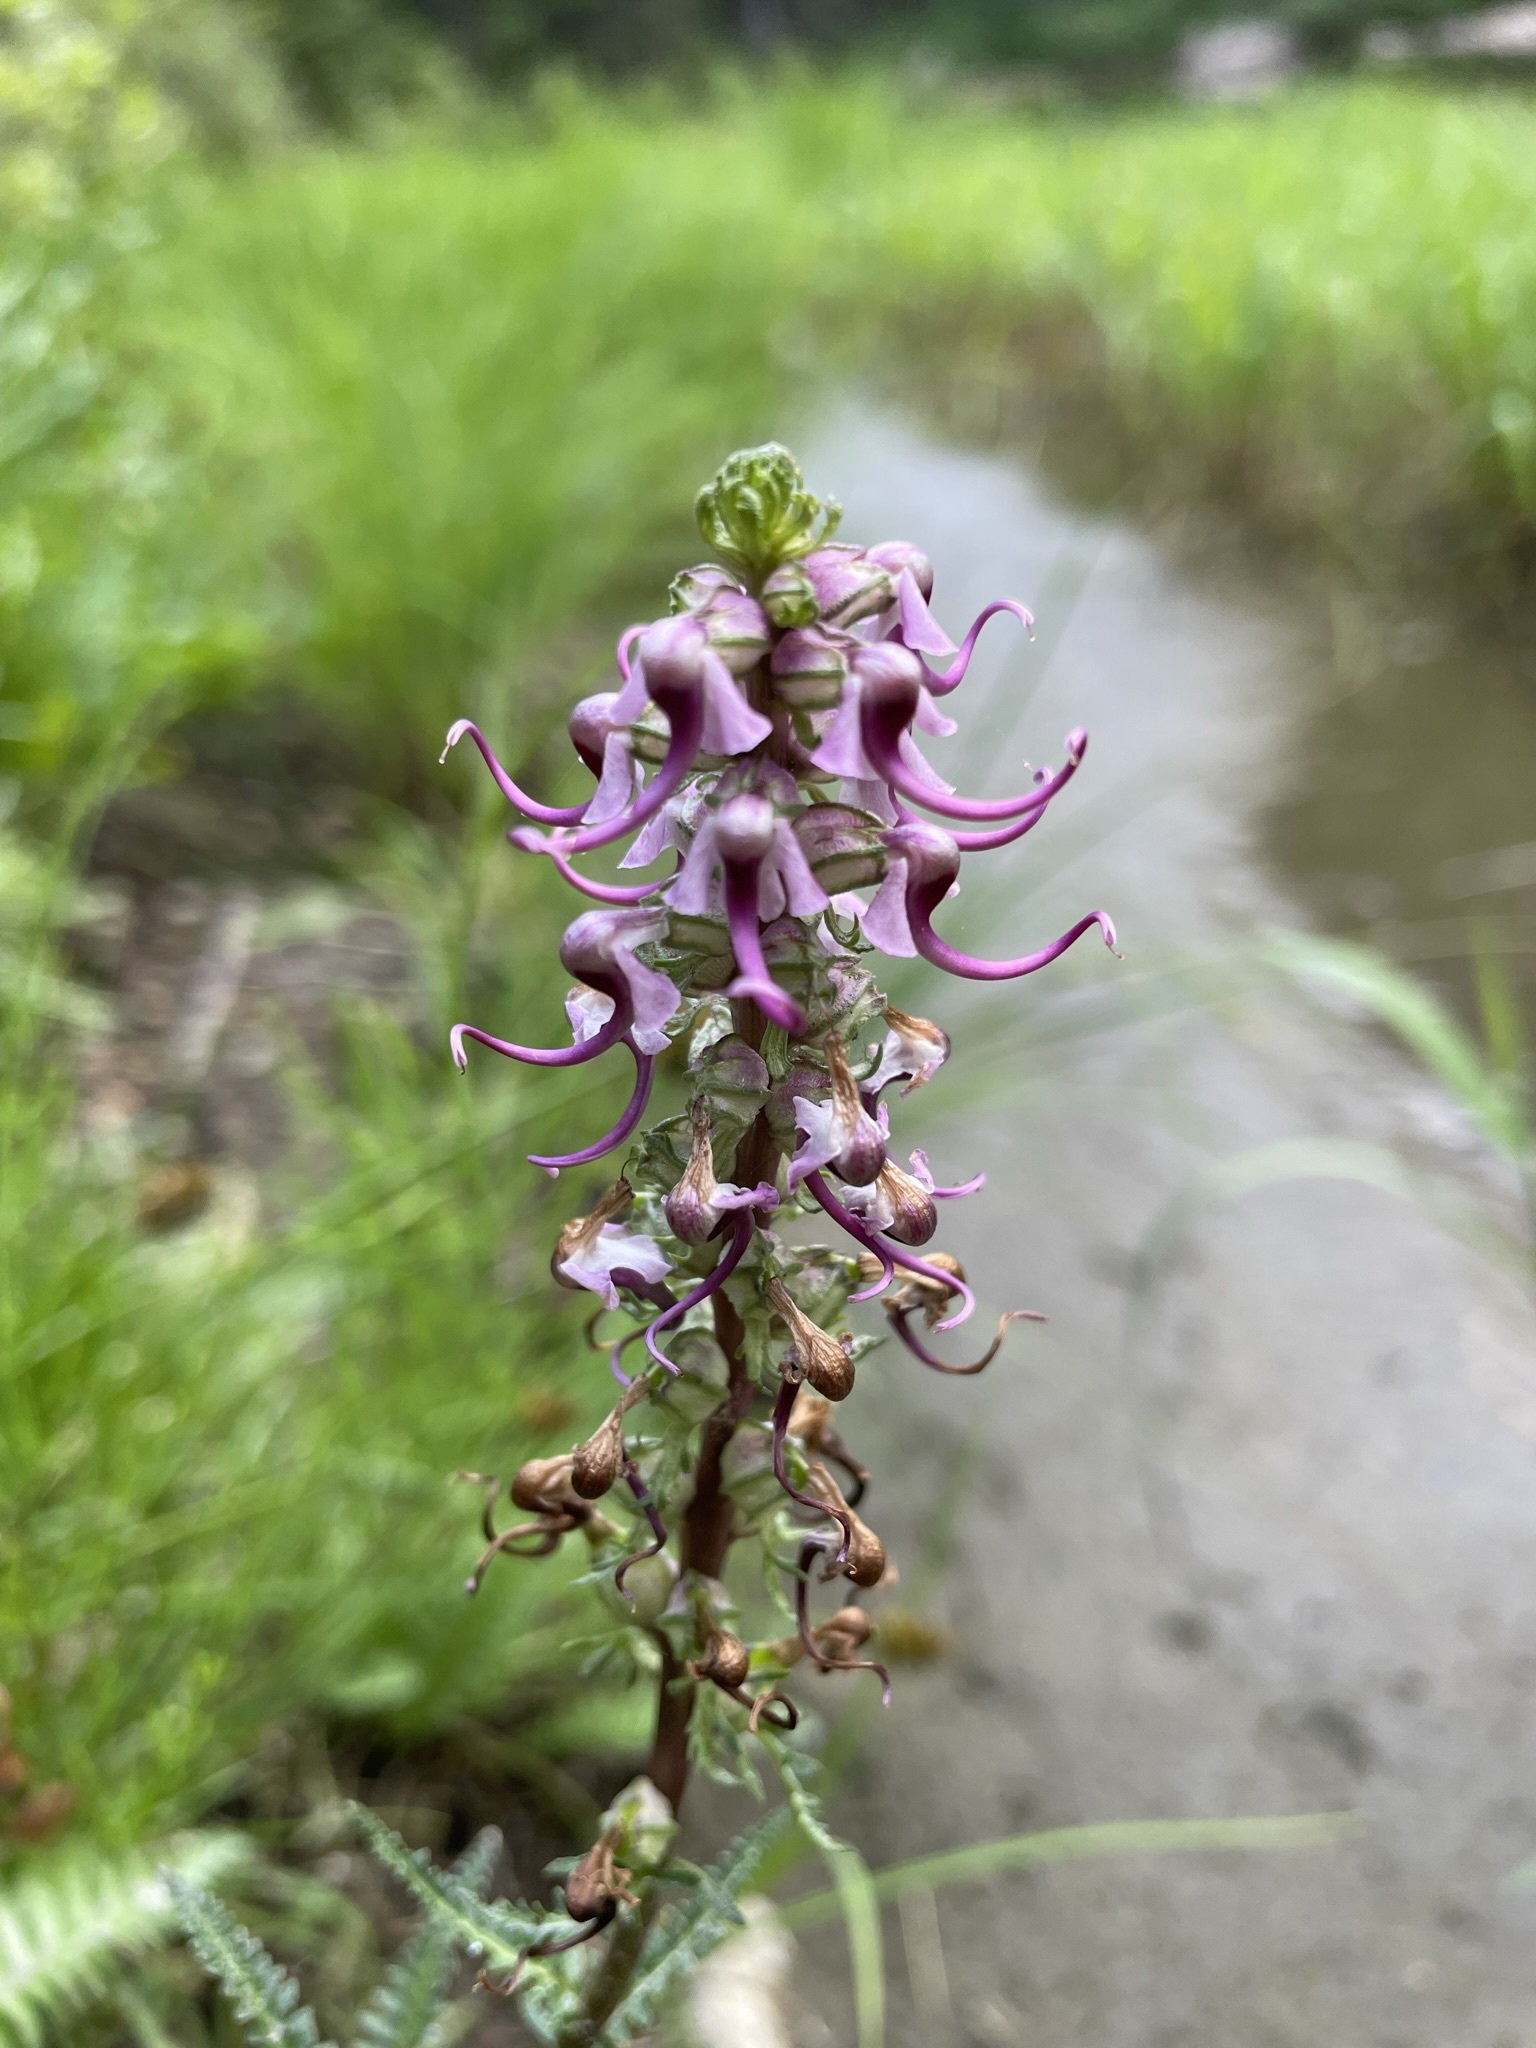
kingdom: Plantae
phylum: Tracheophyta
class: Magnoliopsida
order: Lamiales
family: Orobanchaceae
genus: Pedicularis
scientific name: Pedicularis groenlandica
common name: Elephant's-head
